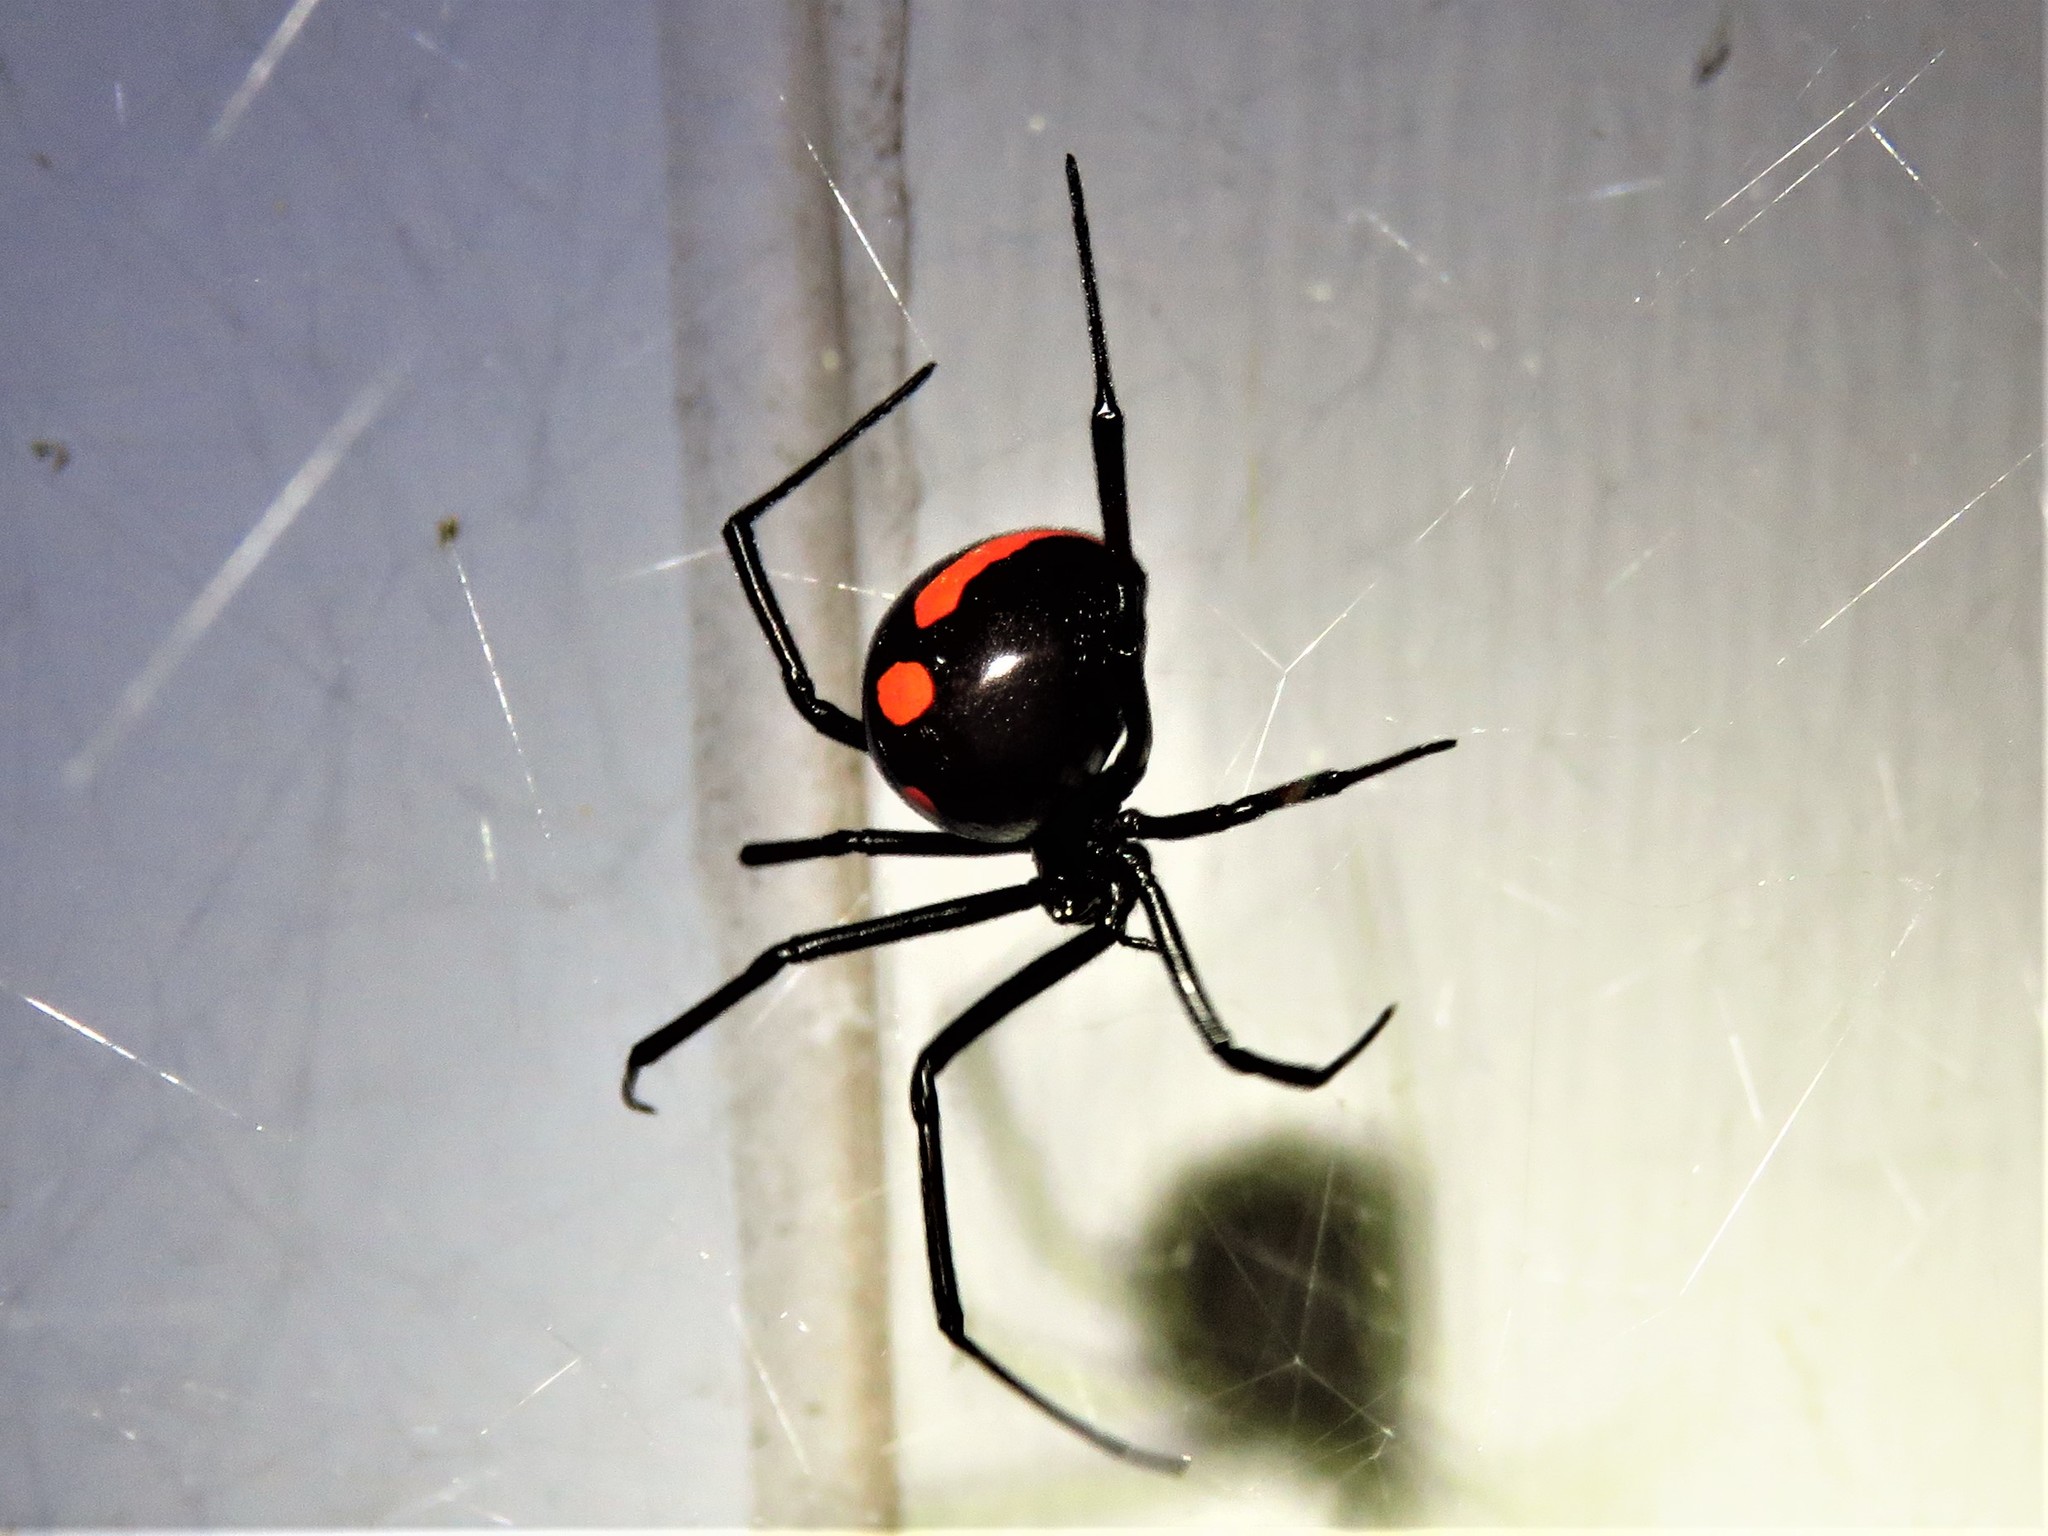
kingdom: Animalia
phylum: Arthropoda
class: Arachnida
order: Araneae
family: Theridiidae
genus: Latrodectus
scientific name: Latrodectus variolus
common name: Northern black widow
